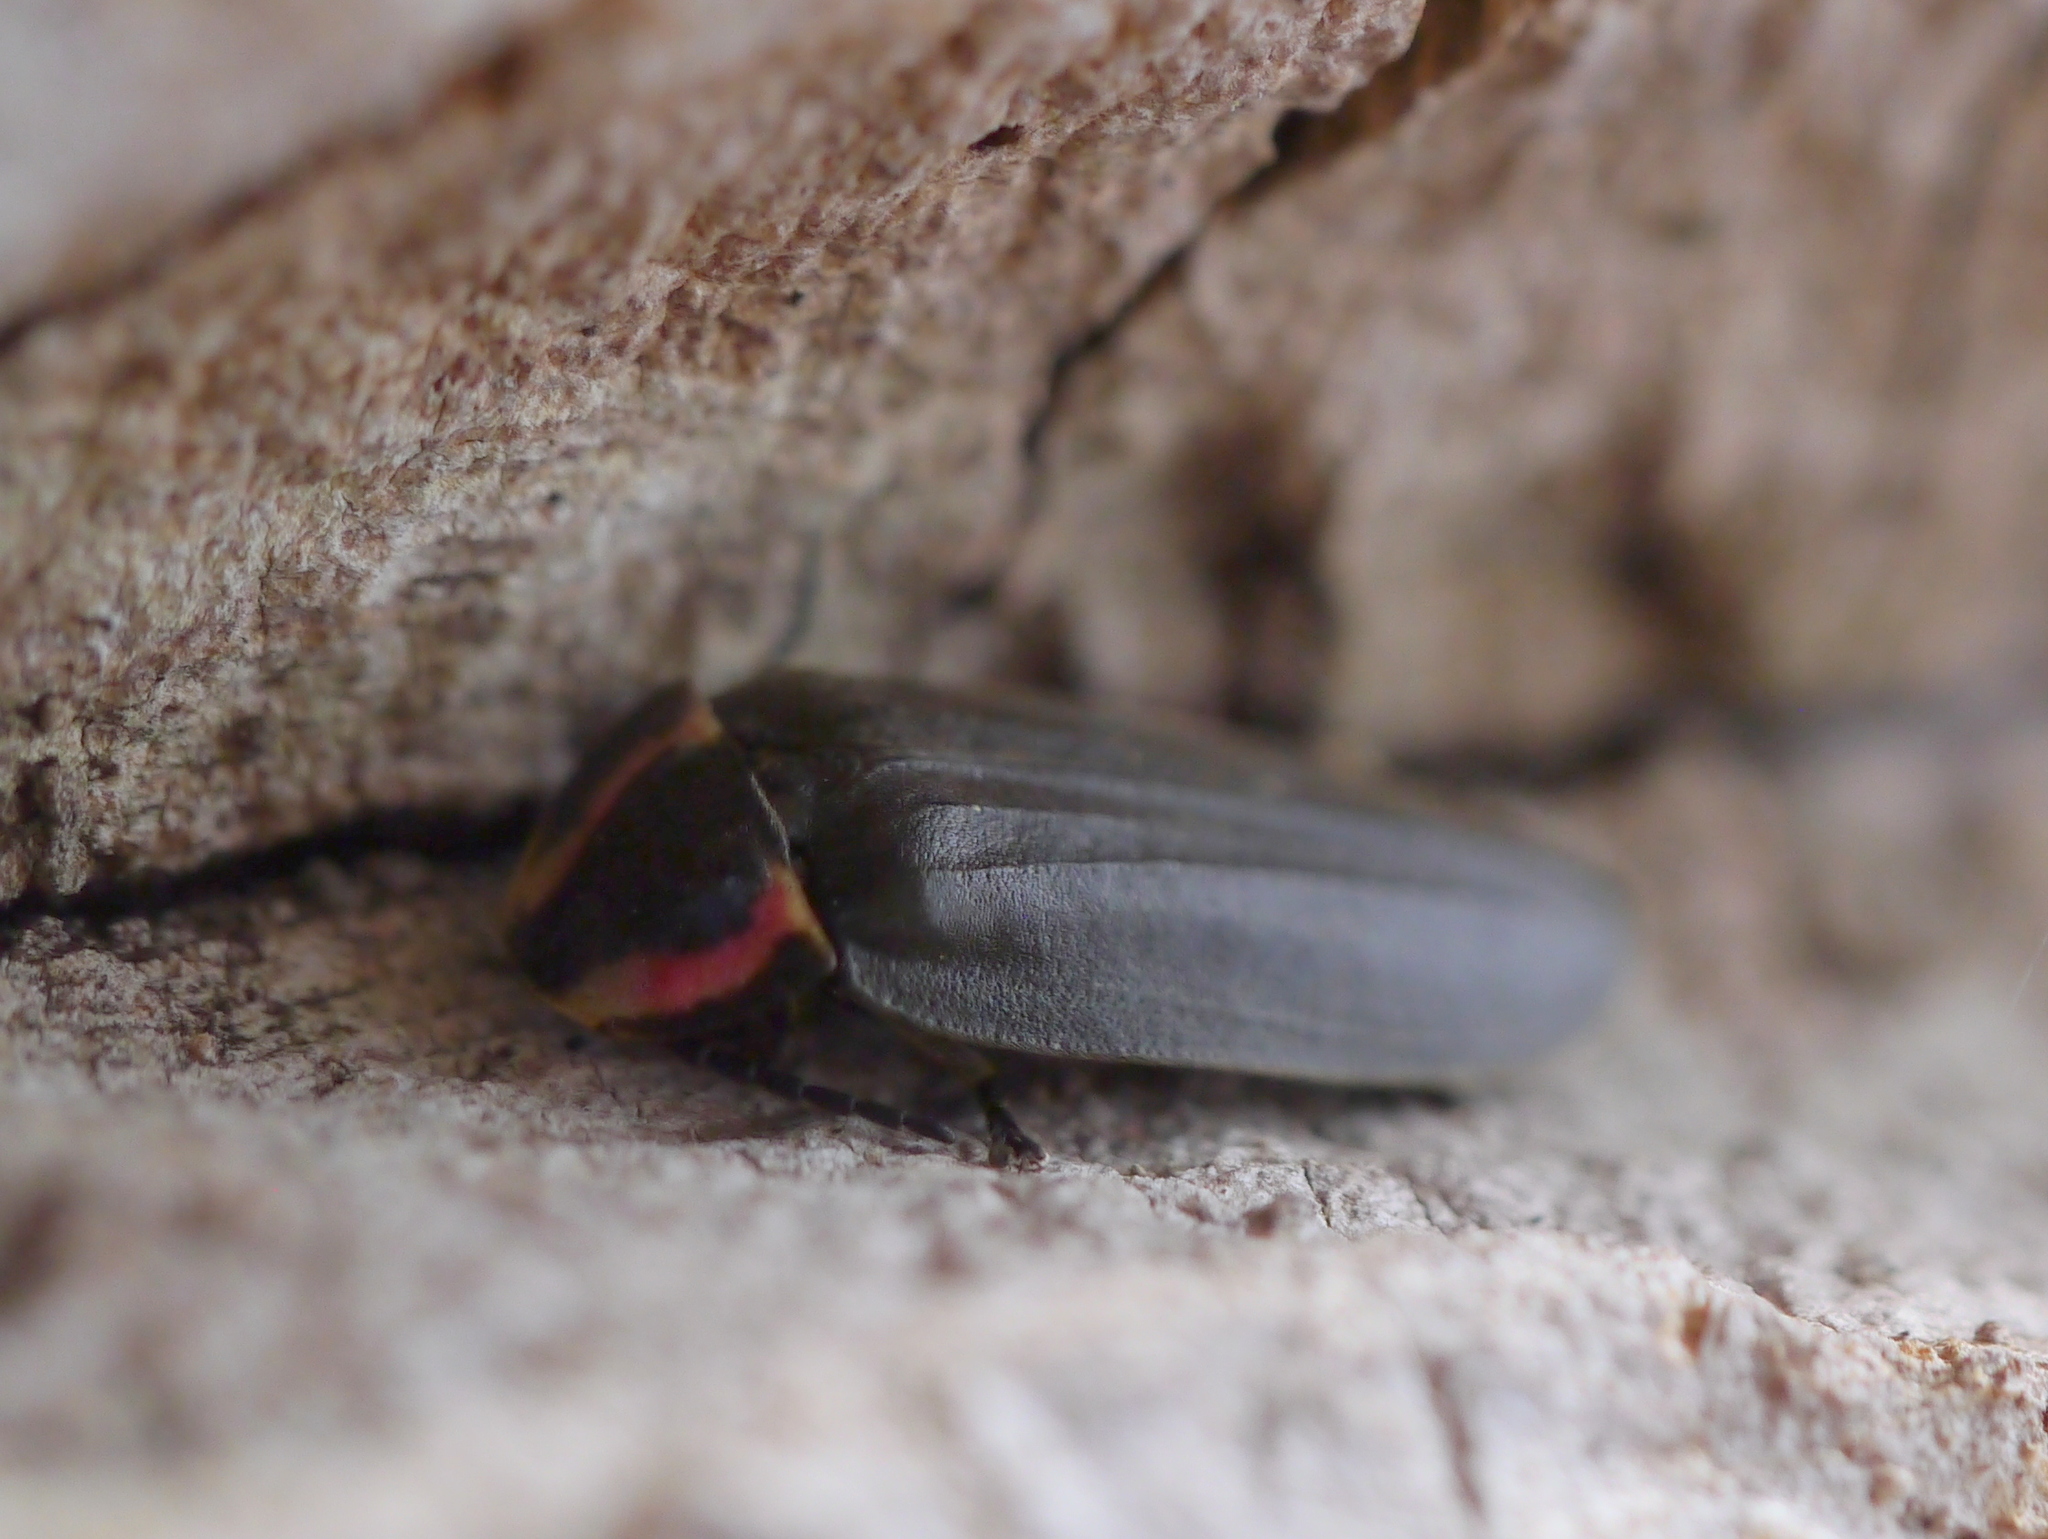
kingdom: Animalia
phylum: Arthropoda
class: Insecta
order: Coleoptera
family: Lampyridae
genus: Photinus
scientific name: Photinus corrusca
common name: Winter firefly
